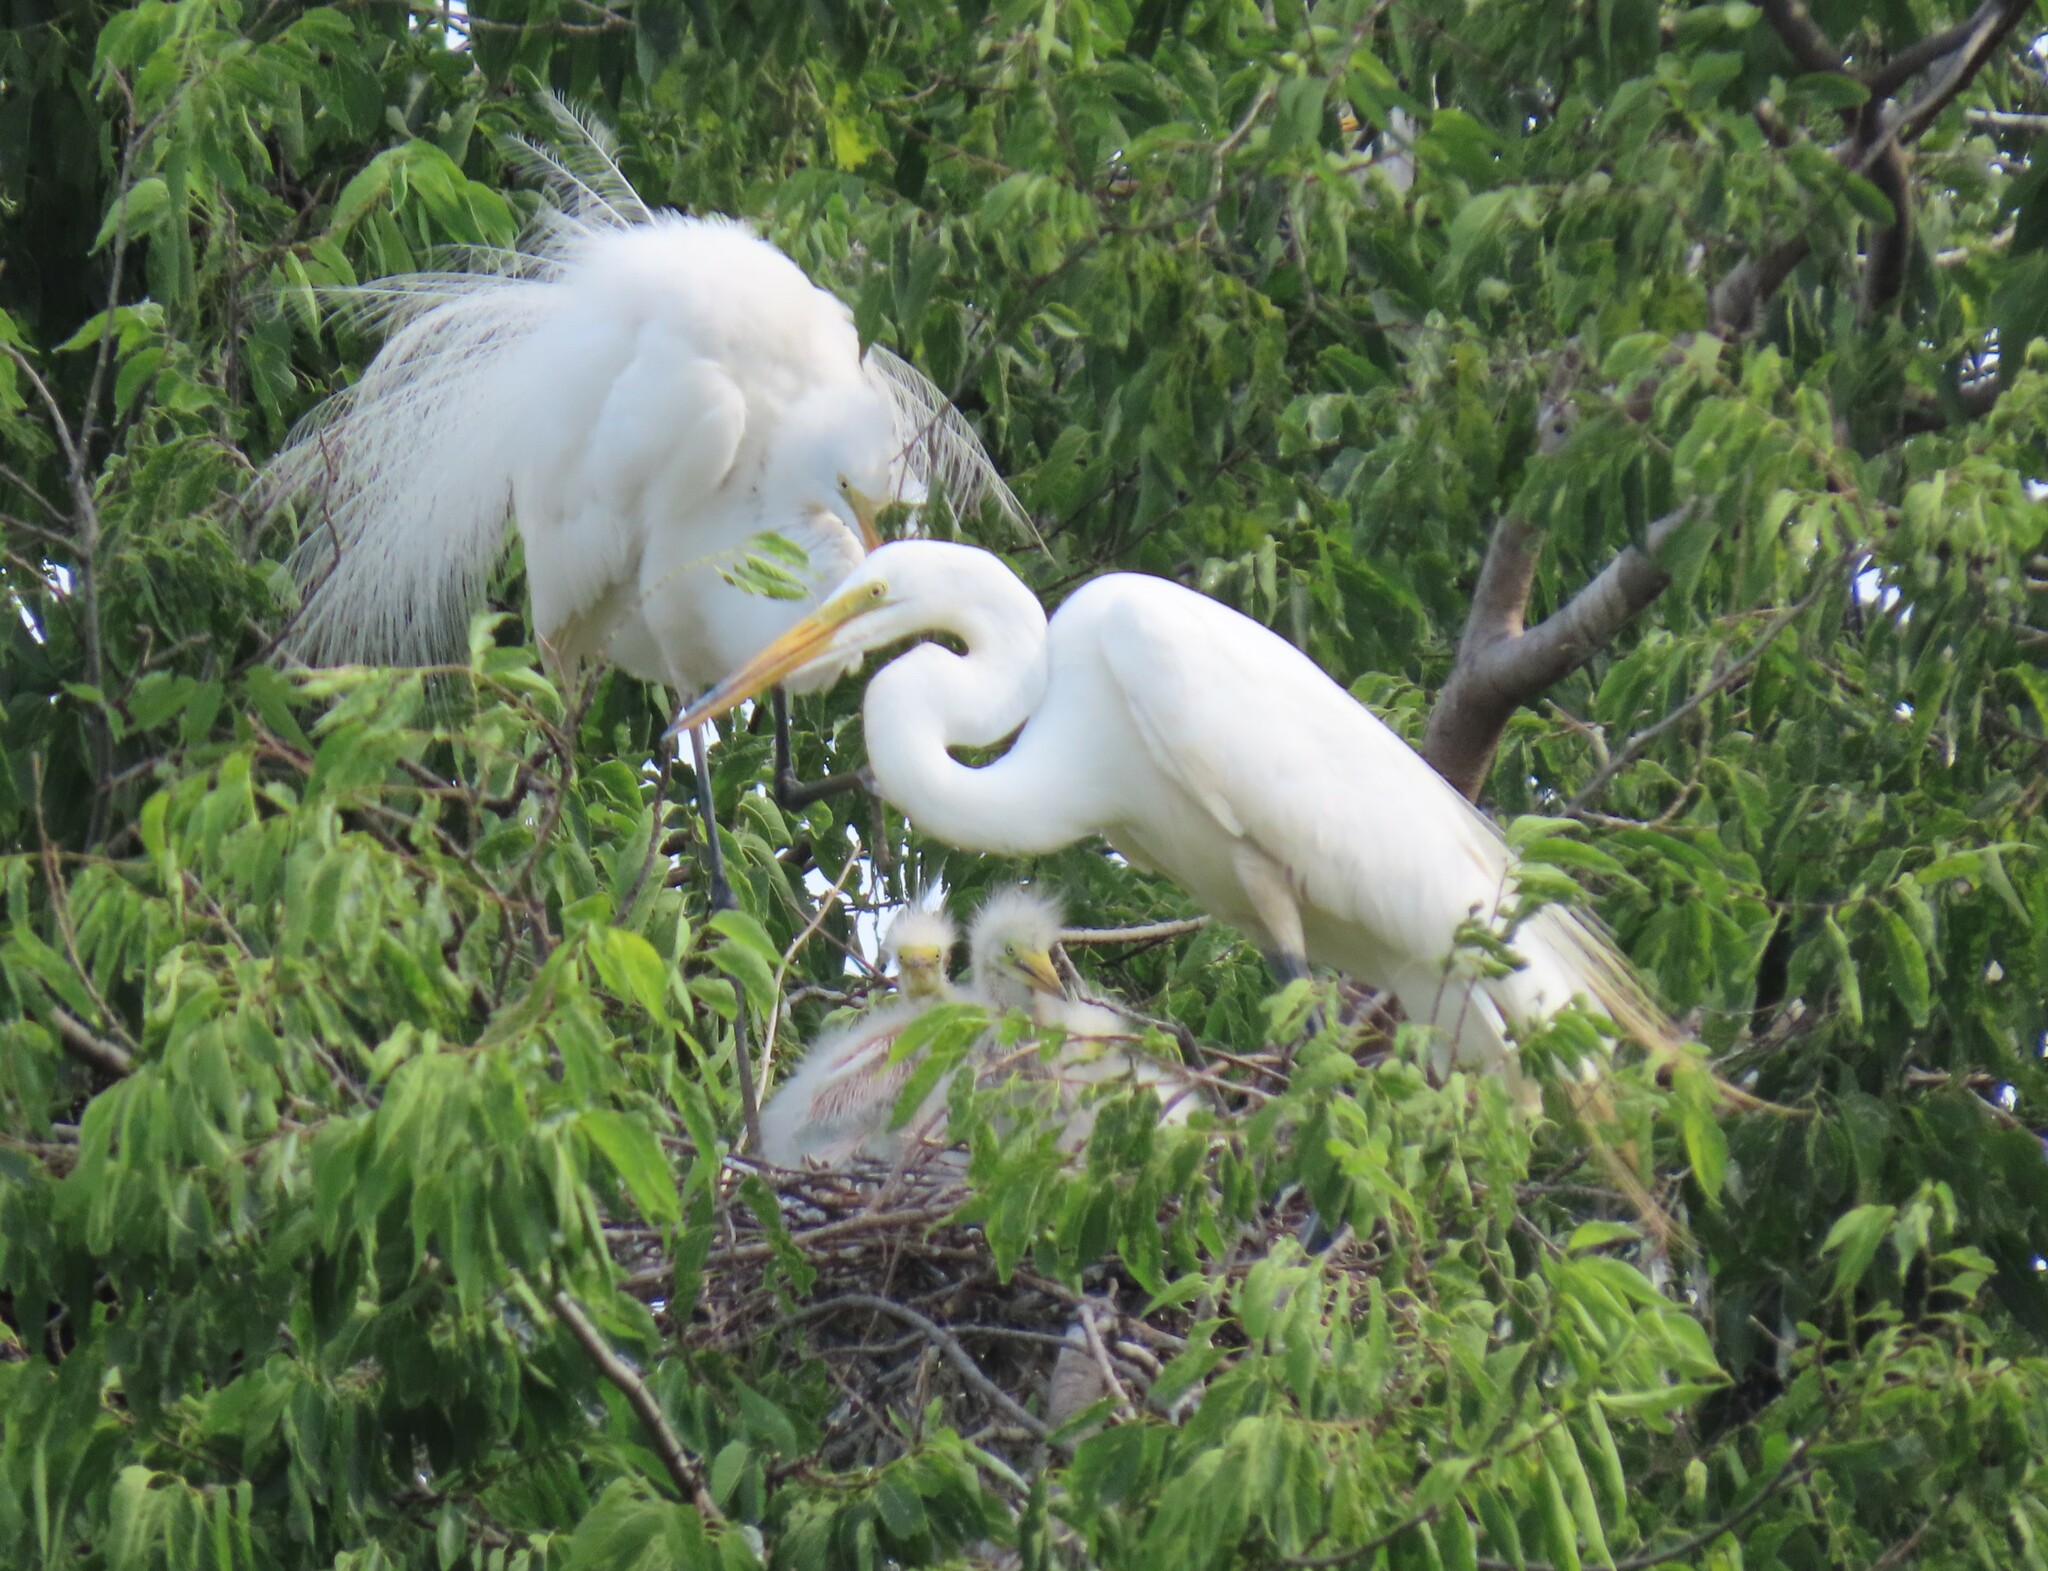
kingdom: Animalia
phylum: Chordata
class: Aves
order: Pelecaniformes
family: Ardeidae
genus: Ardea
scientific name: Ardea alba
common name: Great egret
